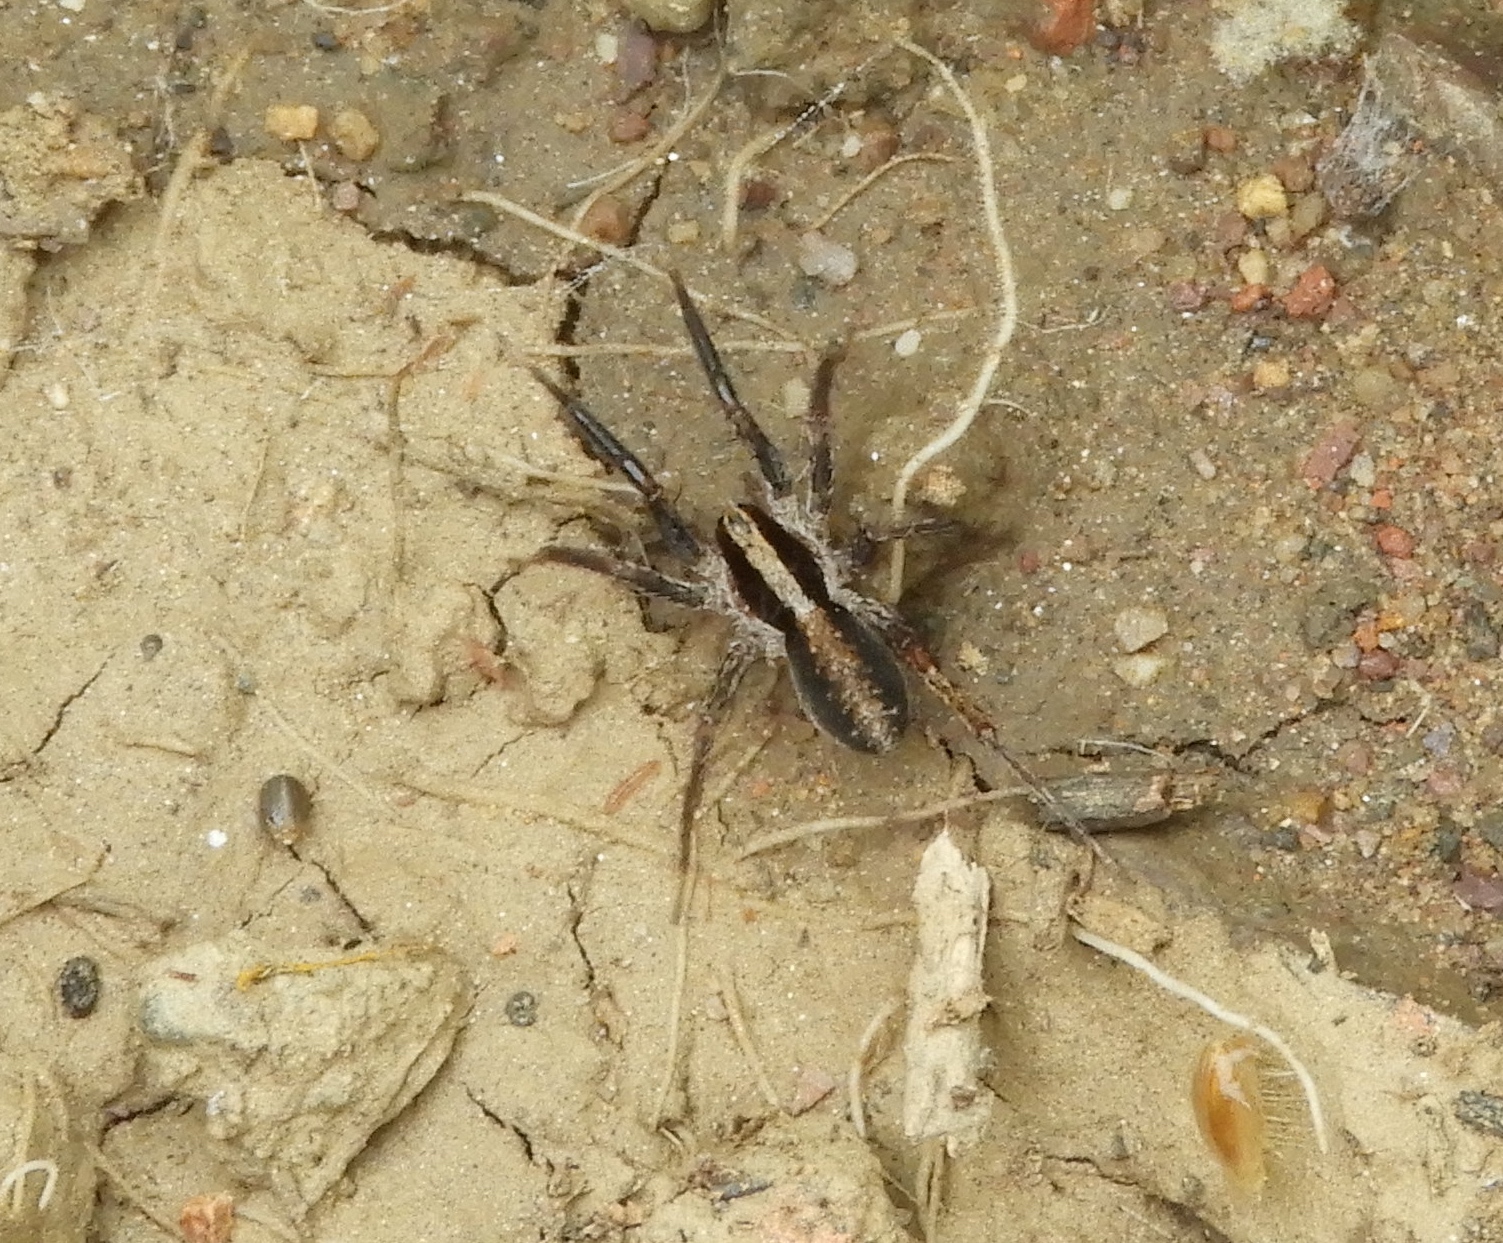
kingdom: Animalia
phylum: Arthropoda
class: Arachnida
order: Araneae
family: Lycosidae
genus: Schizocosa
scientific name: Schizocosa
